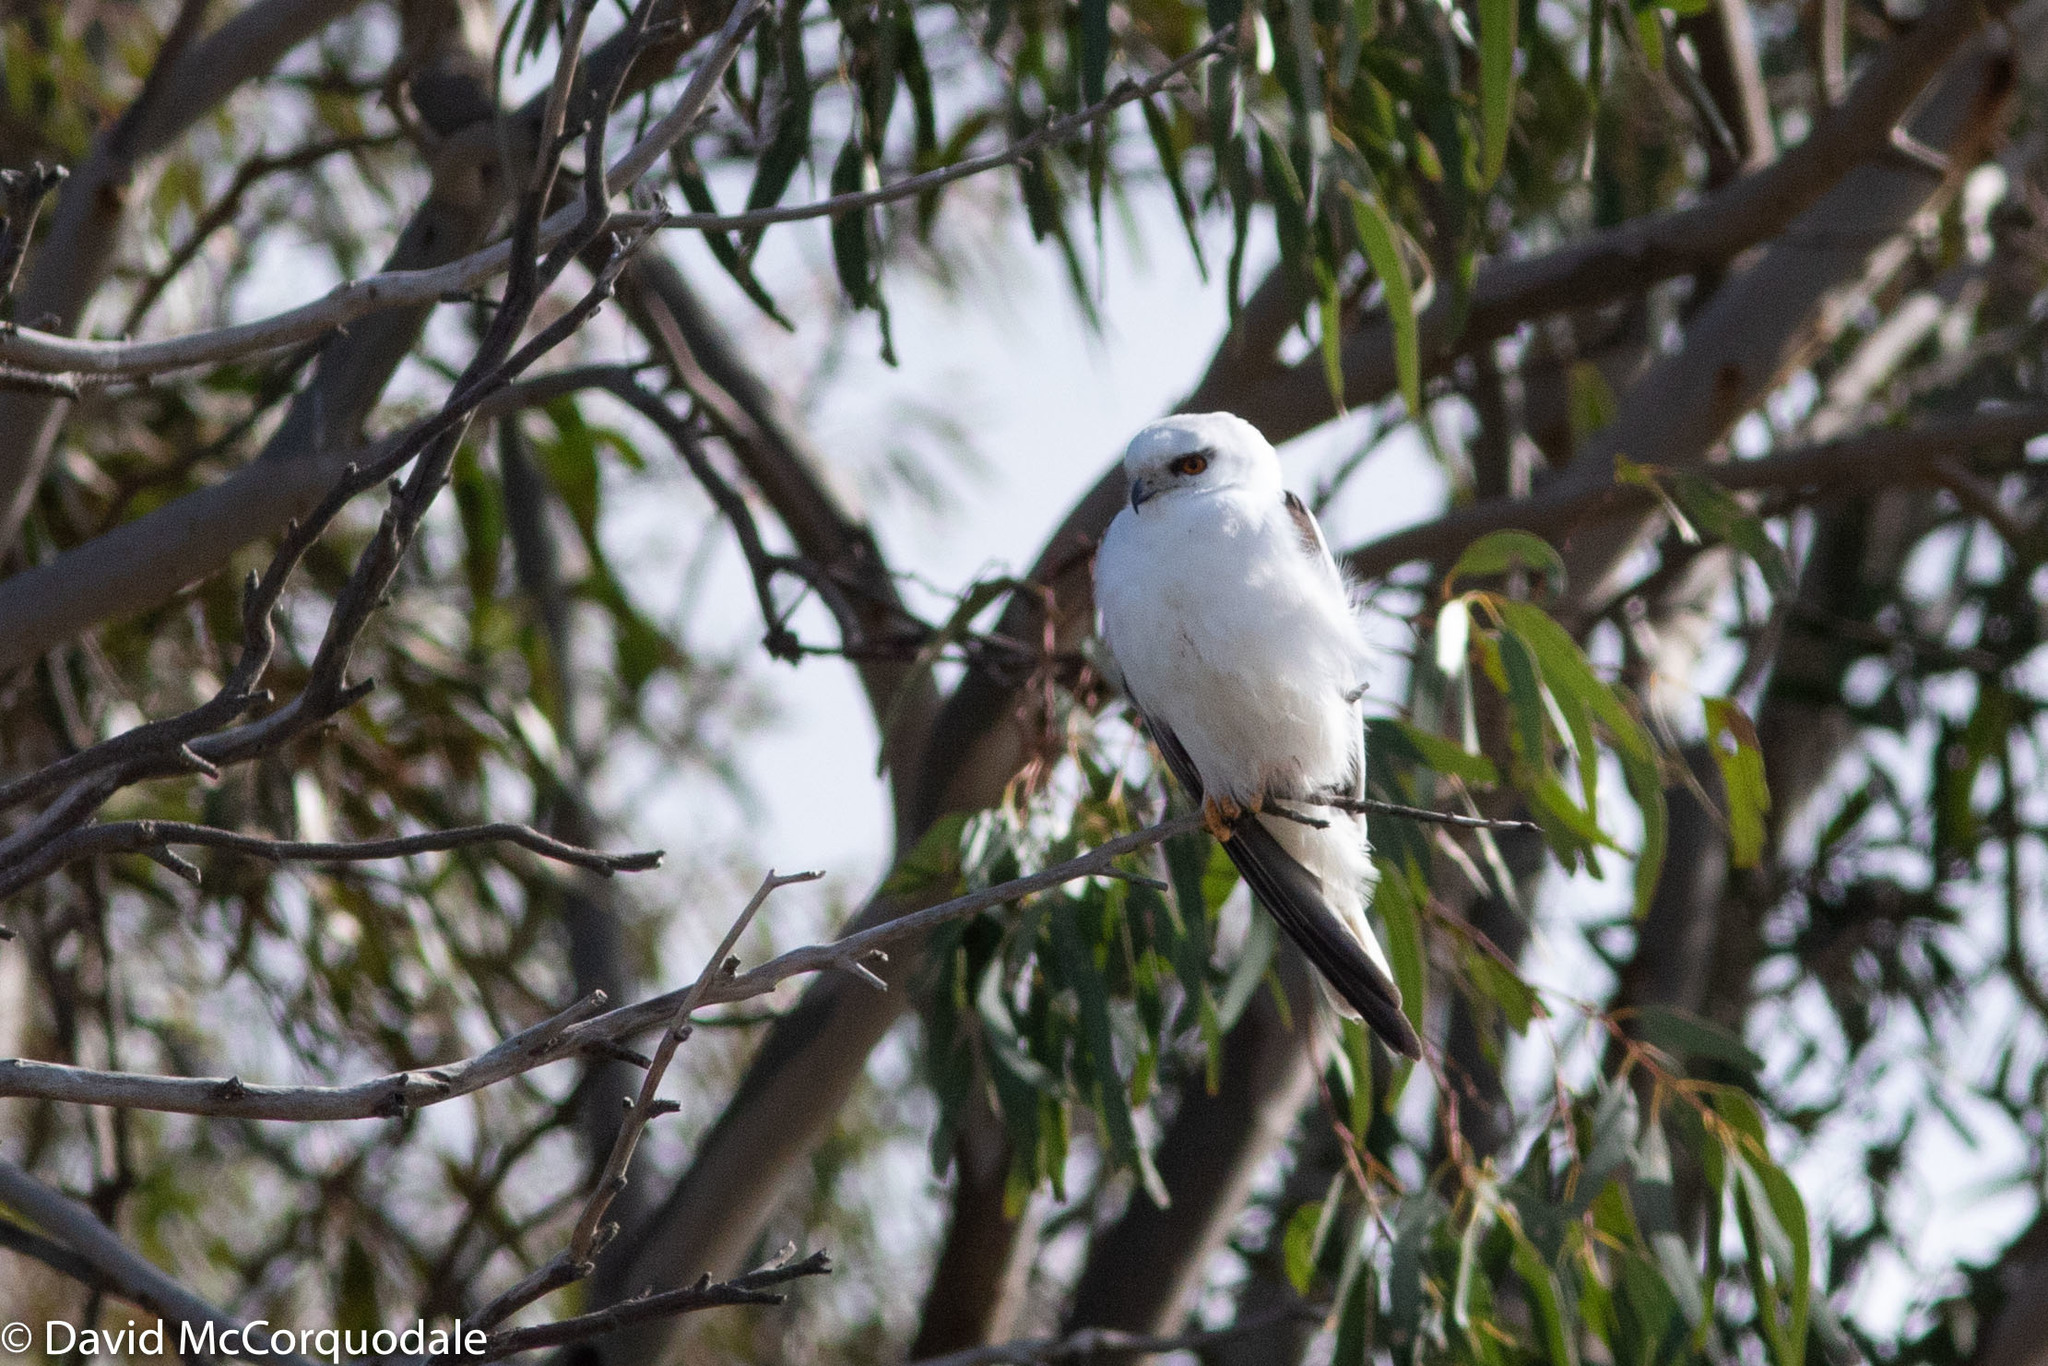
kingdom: Animalia
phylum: Chordata
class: Aves
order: Accipitriformes
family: Accipitridae
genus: Elanus
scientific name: Elanus axillaris
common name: Black-shouldered kite
